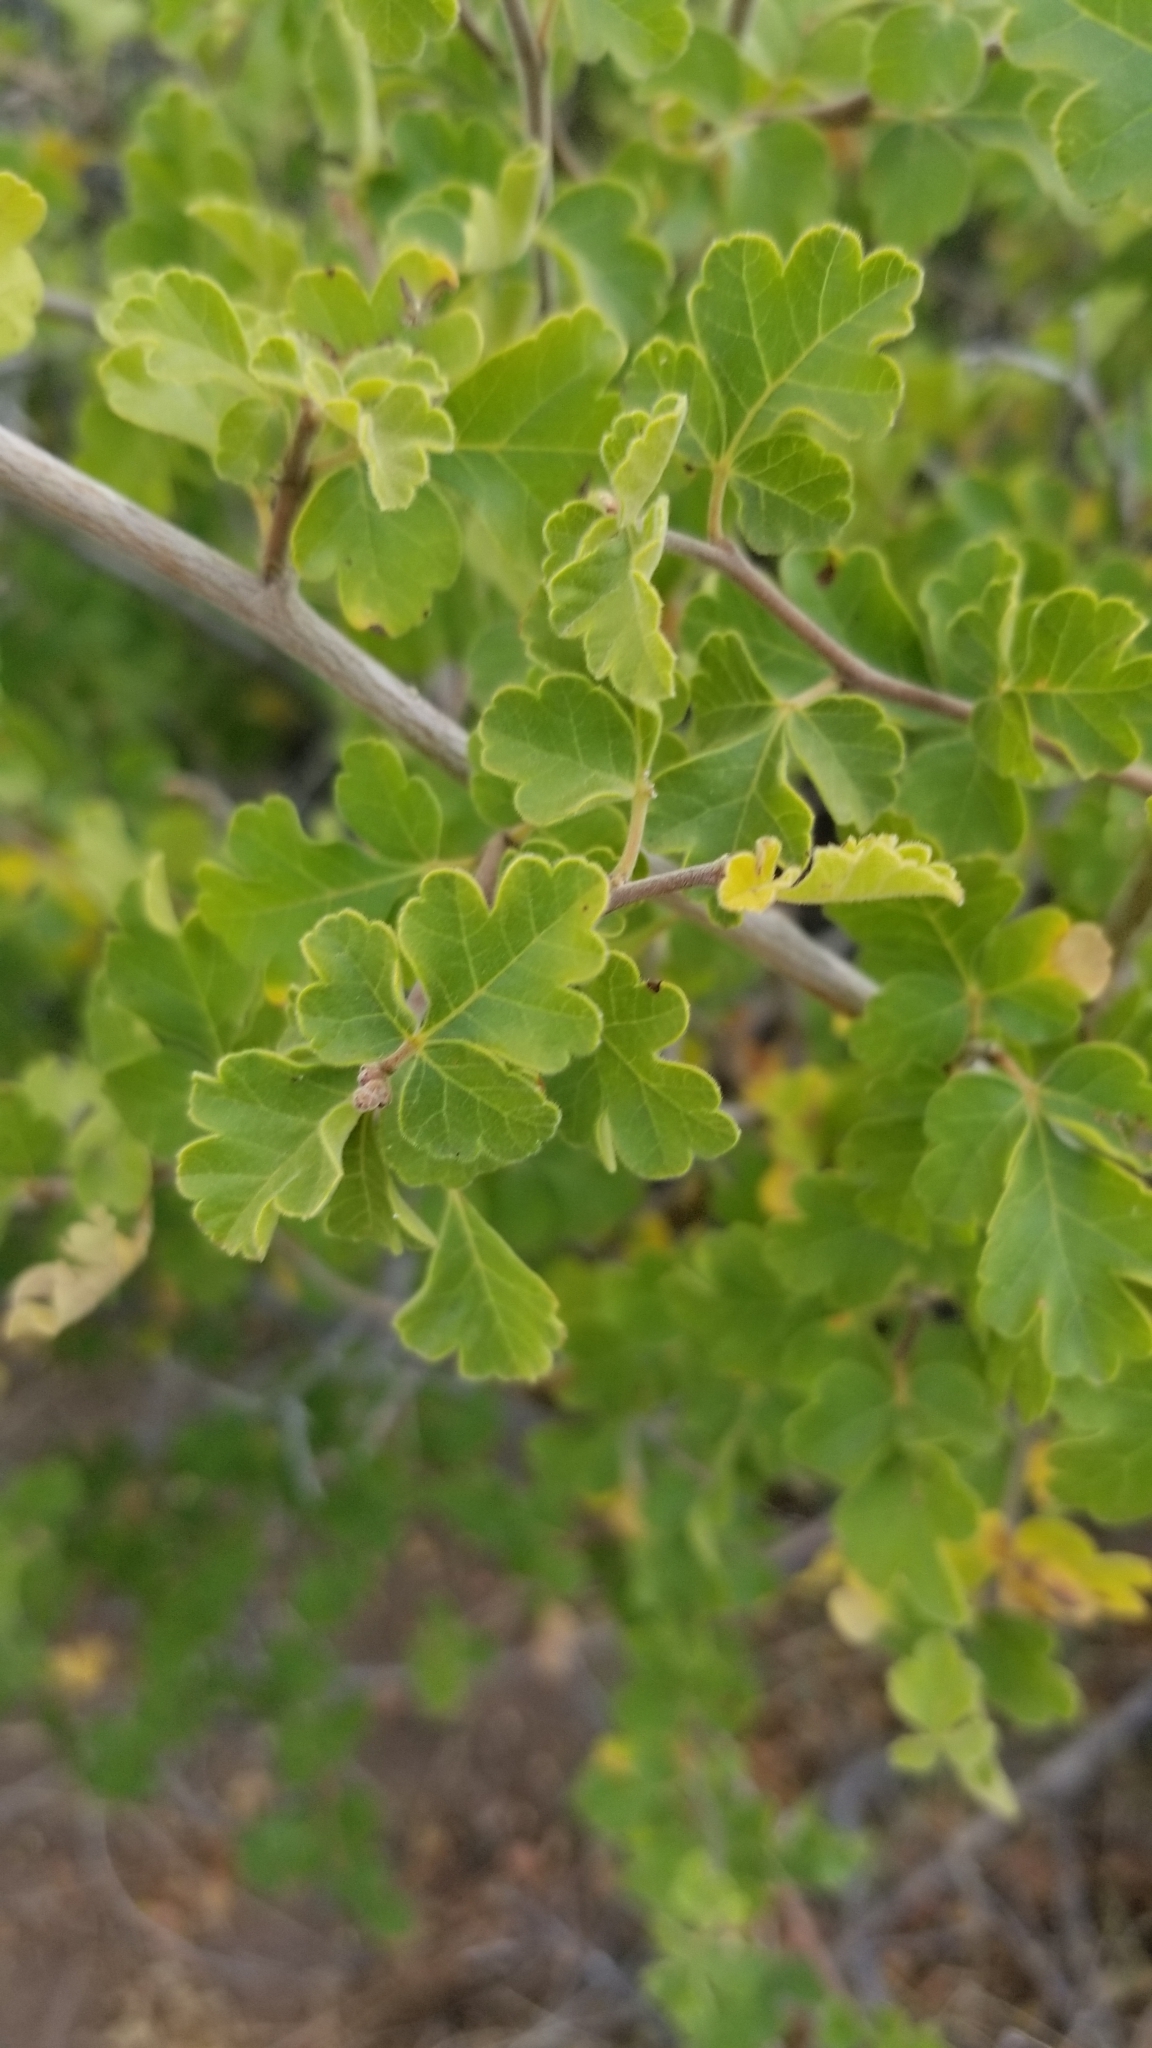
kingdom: Plantae
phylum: Tracheophyta
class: Magnoliopsida
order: Sapindales
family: Anacardiaceae
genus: Rhus
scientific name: Rhus aromatica
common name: Aromatic sumac
